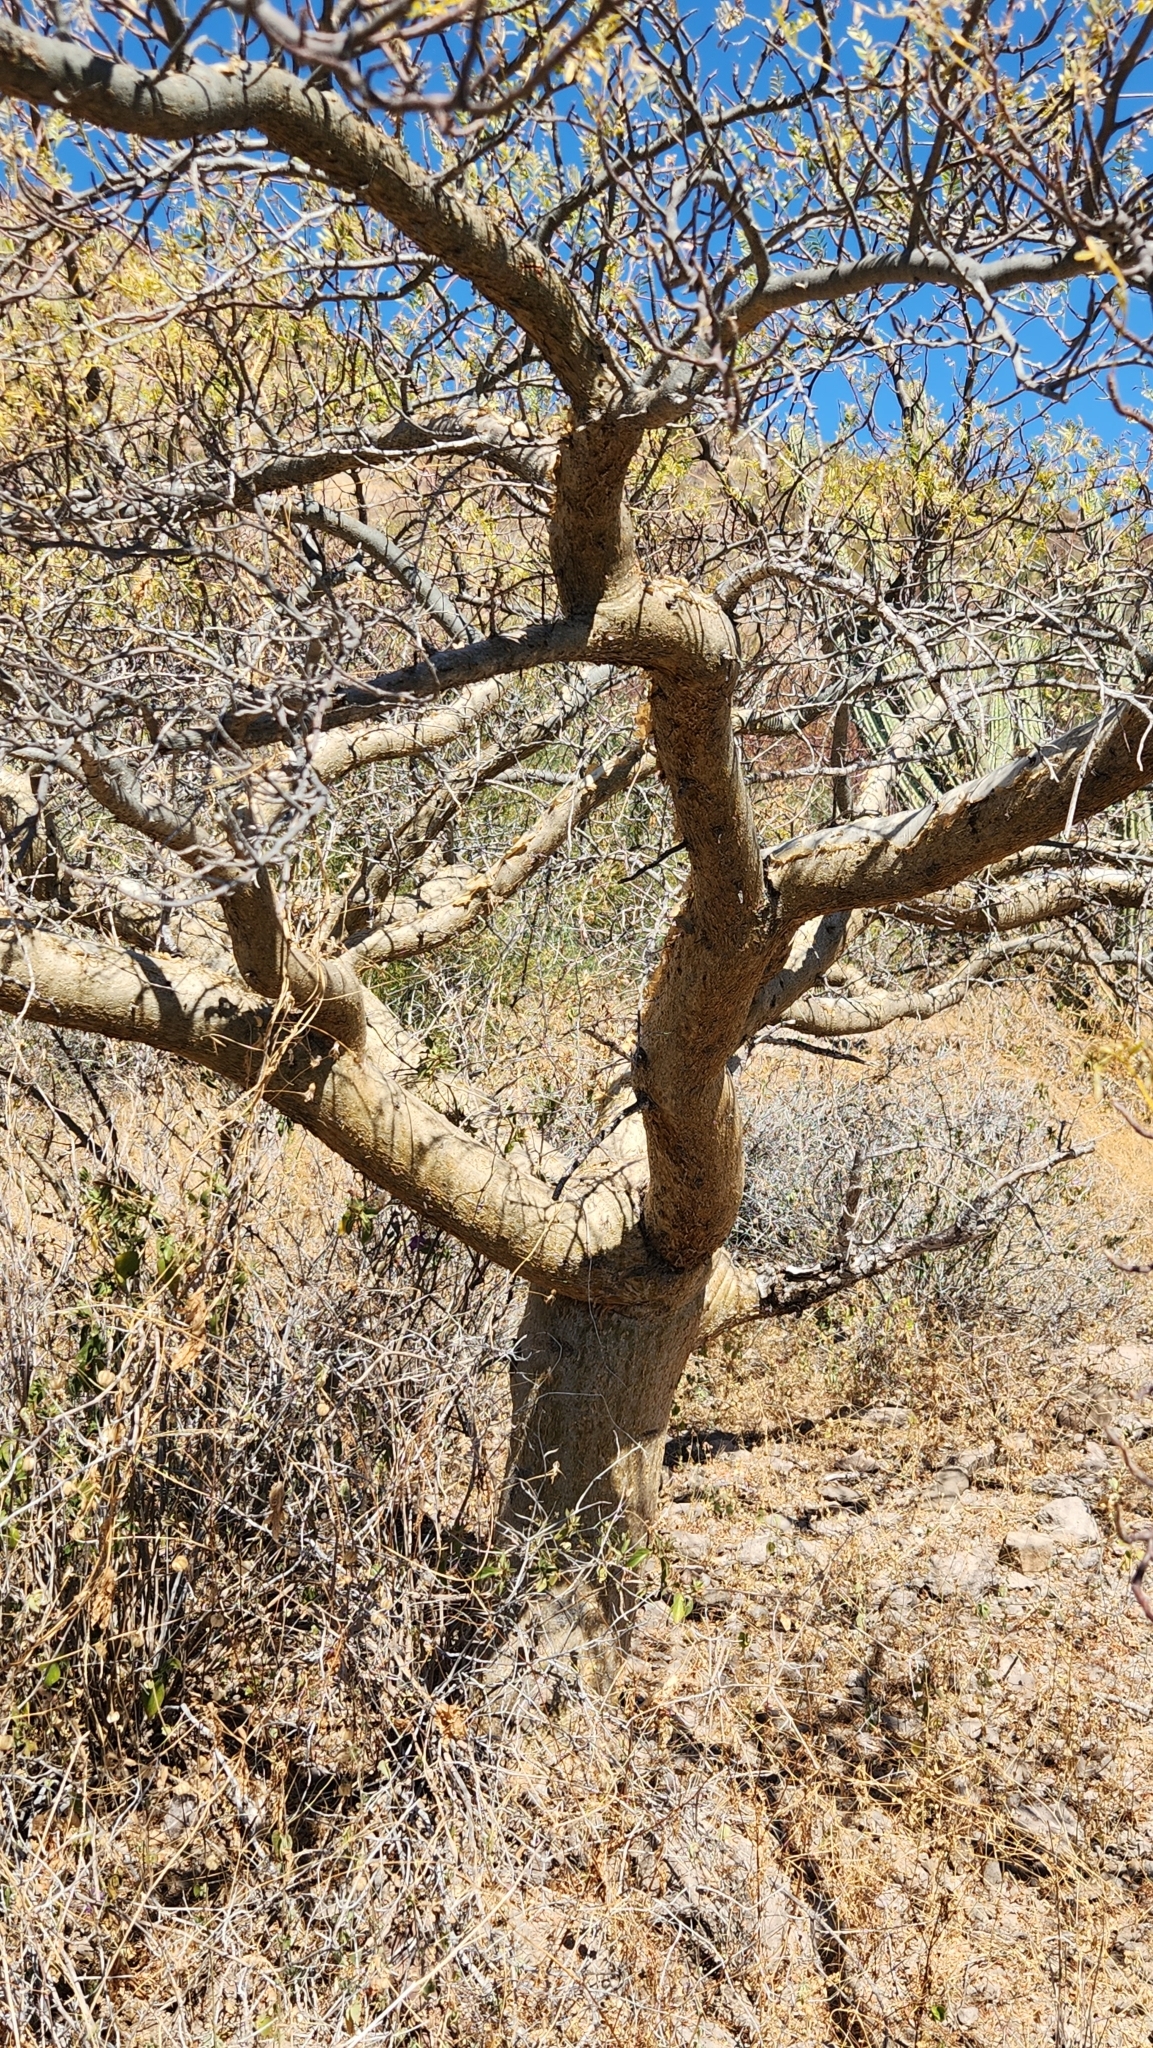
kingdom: Plantae
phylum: Tracheophyta
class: Magnoliopsida
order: Sapindales
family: Burseraceae
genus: Bursera
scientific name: Bursera microphylla
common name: Elephant tree
